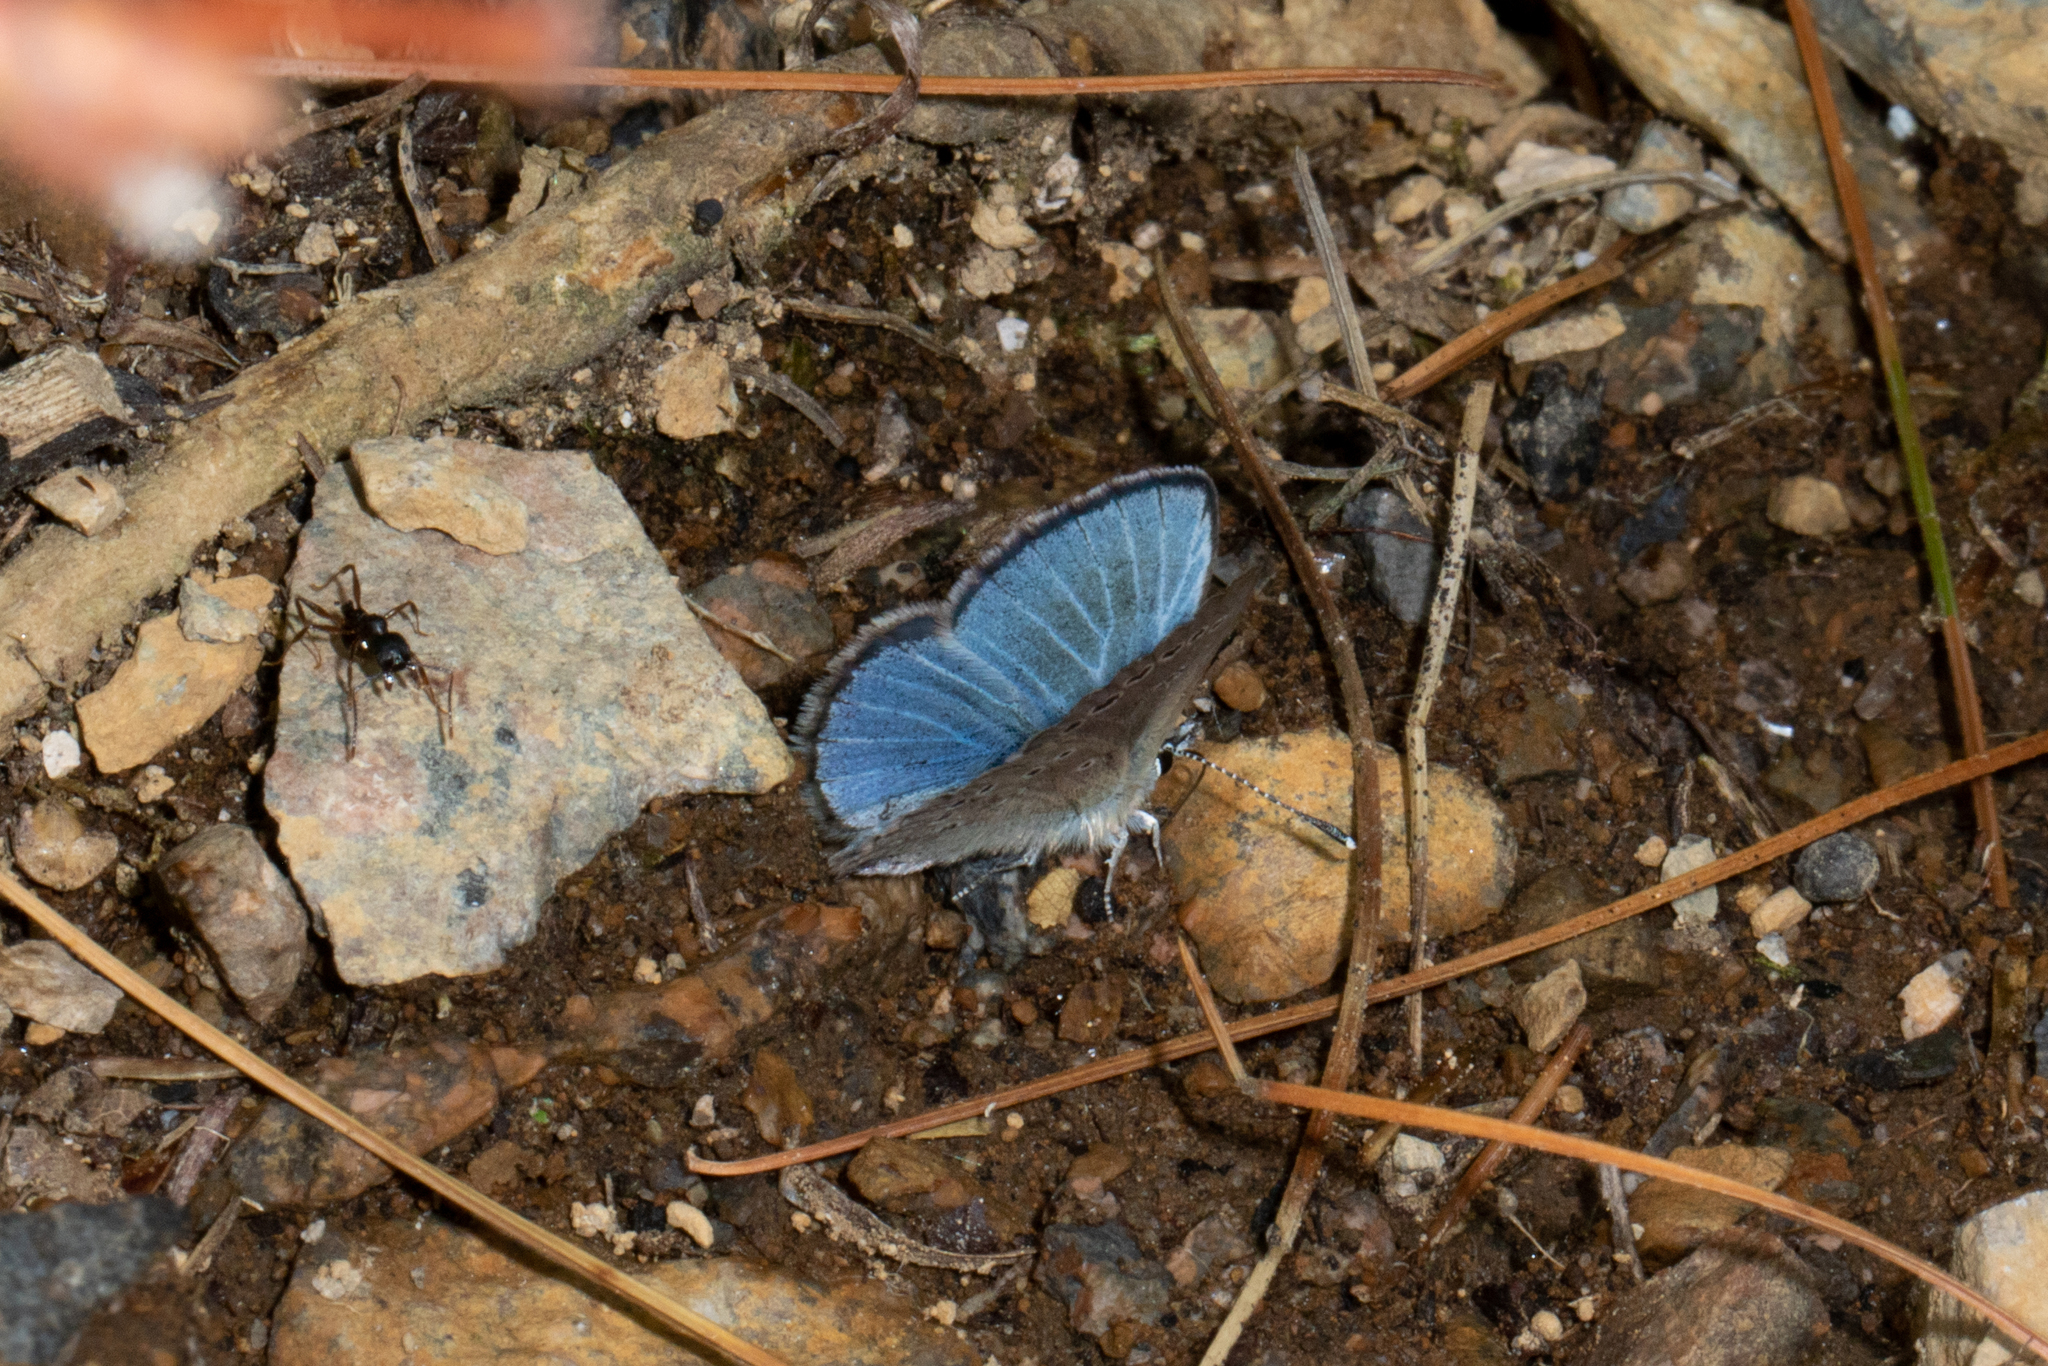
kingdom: Animalia
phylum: Arthropoda
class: Insecta
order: Lepidoptera
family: Lycaenidae
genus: Glaucopsyche
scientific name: Glaucopsyche lygdamus
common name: Silvery blue
